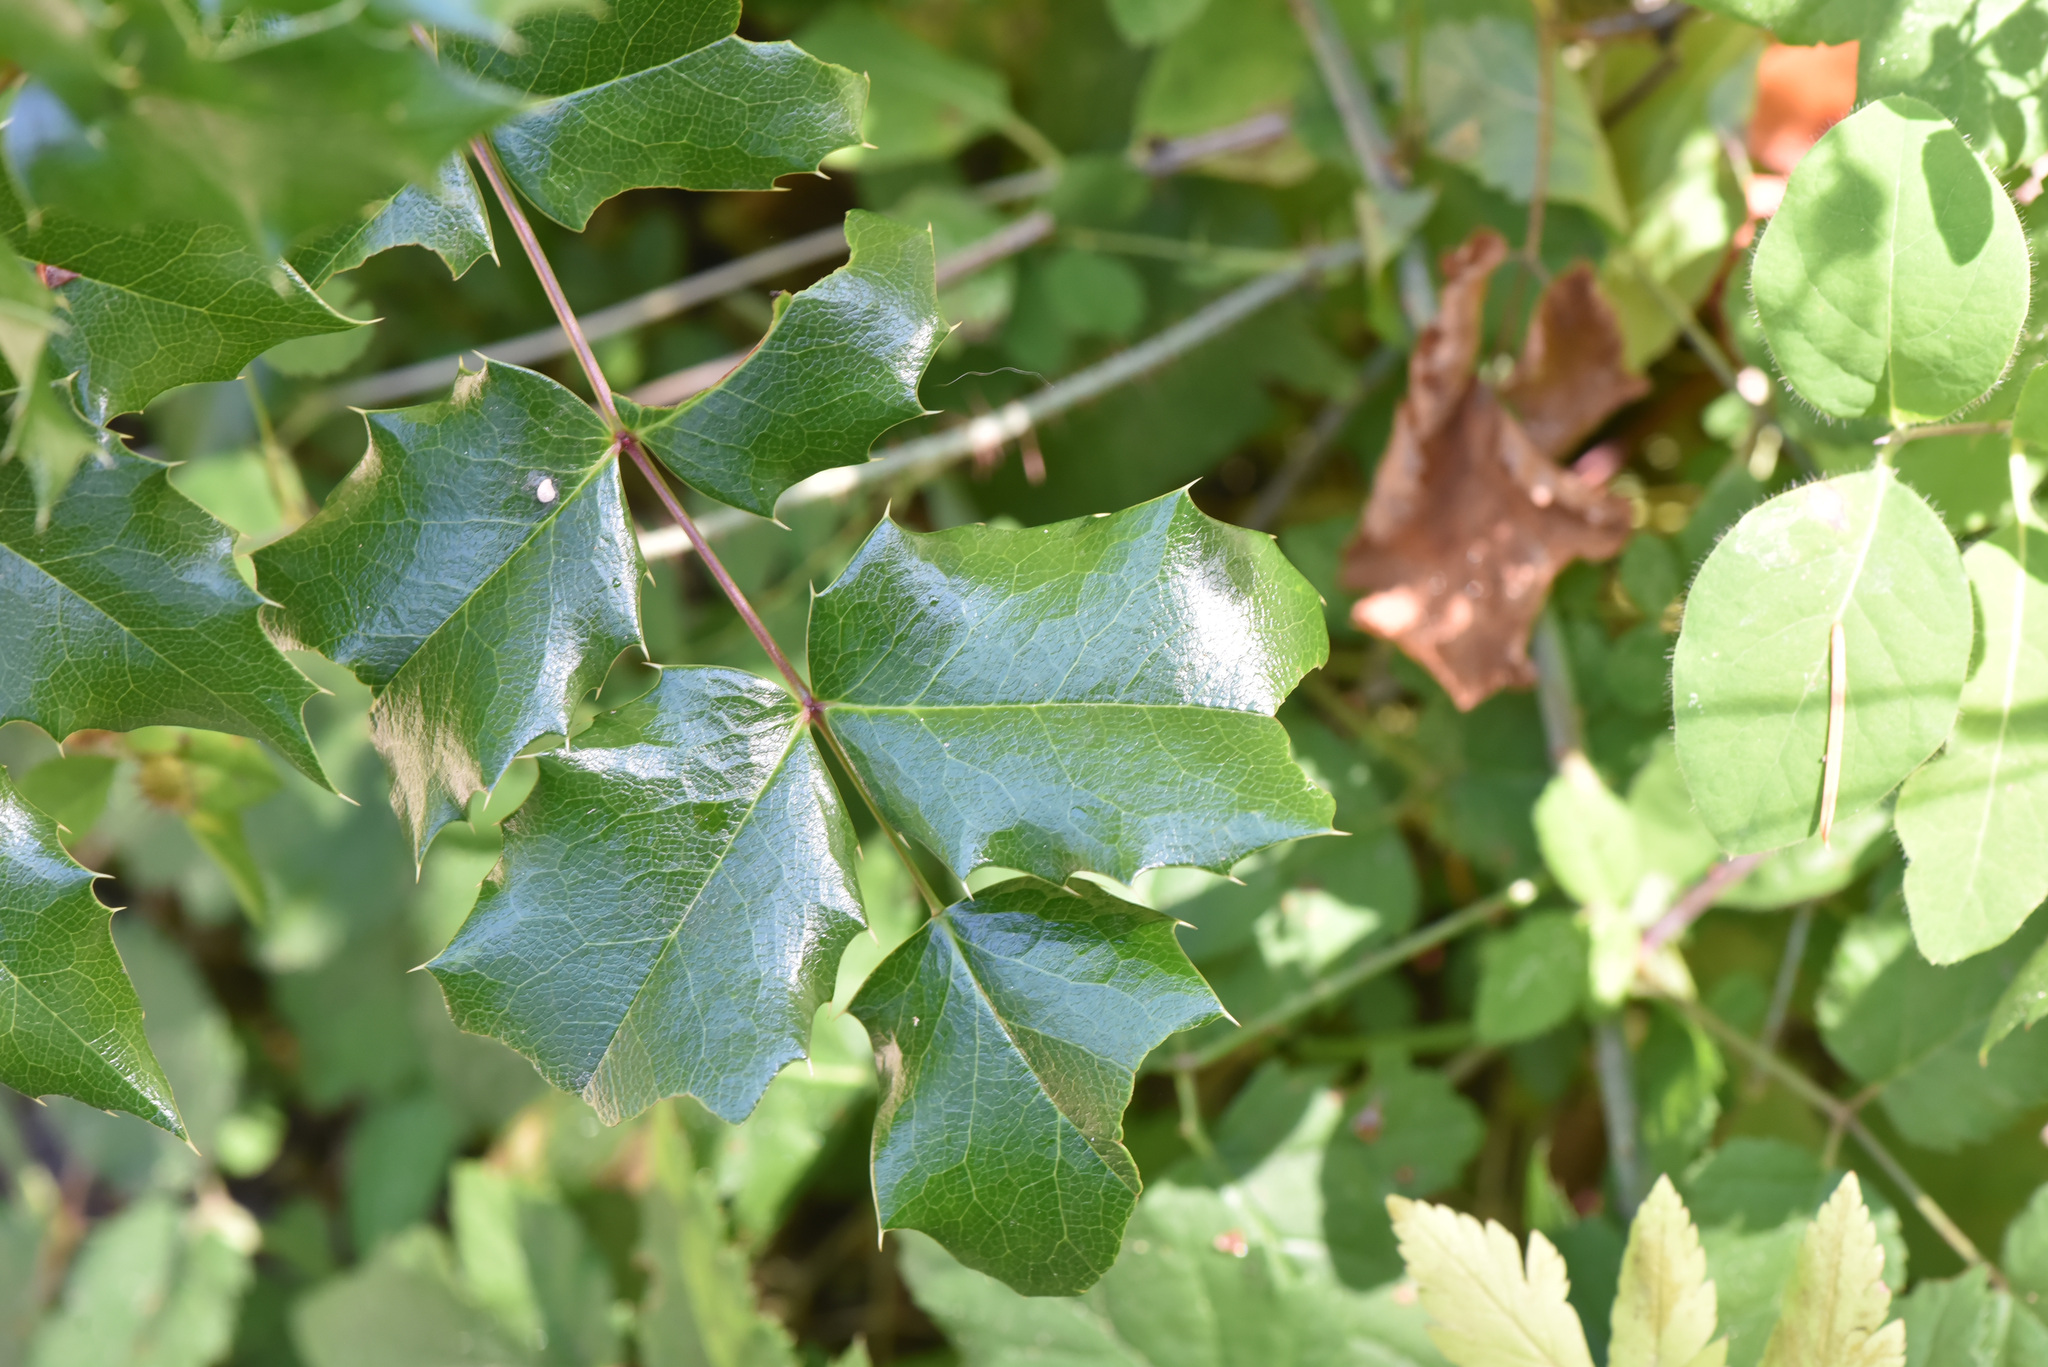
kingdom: Plantae
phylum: Tracheophyta
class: Magnoliopsida
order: Ranunculales
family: Berberidaceae
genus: Mahonia
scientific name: Mahonia aquifolium
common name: Oregon-grape
